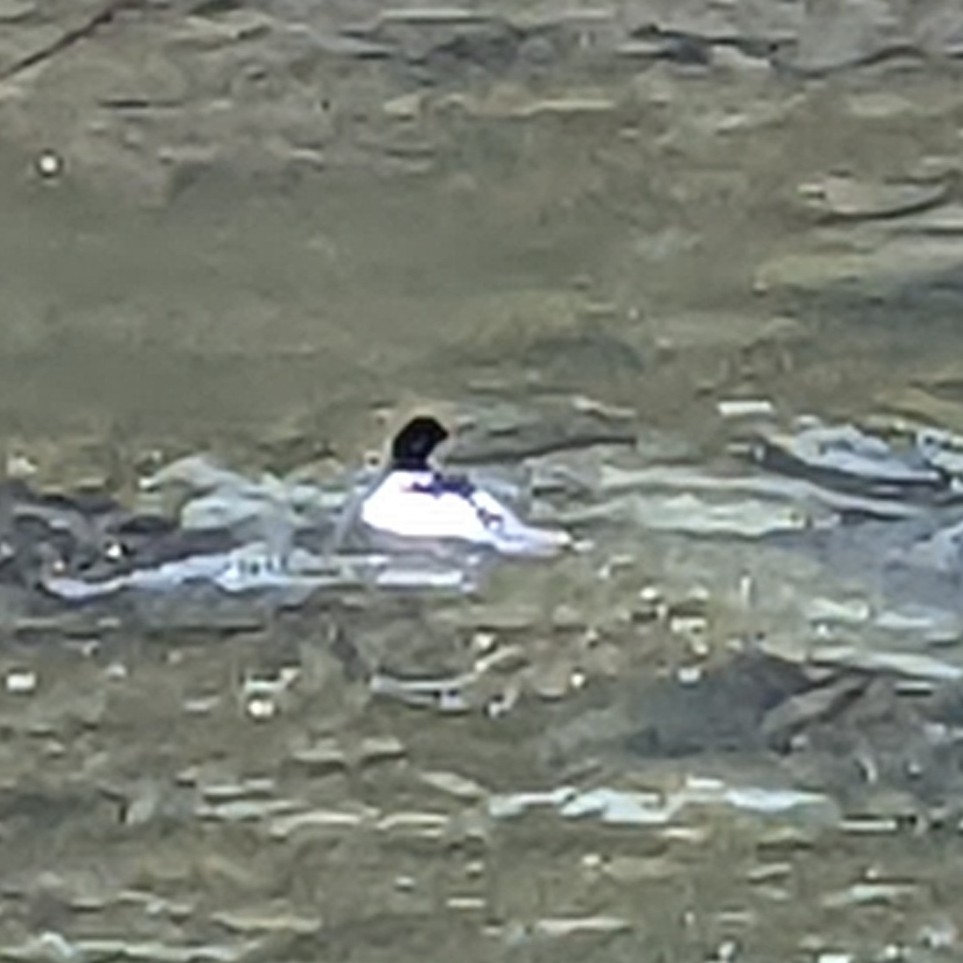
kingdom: Animalia
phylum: Chordata
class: Aves
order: Anseriformes
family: Anatidae
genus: Mergus
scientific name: Mergus merganser
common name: Common merganser
